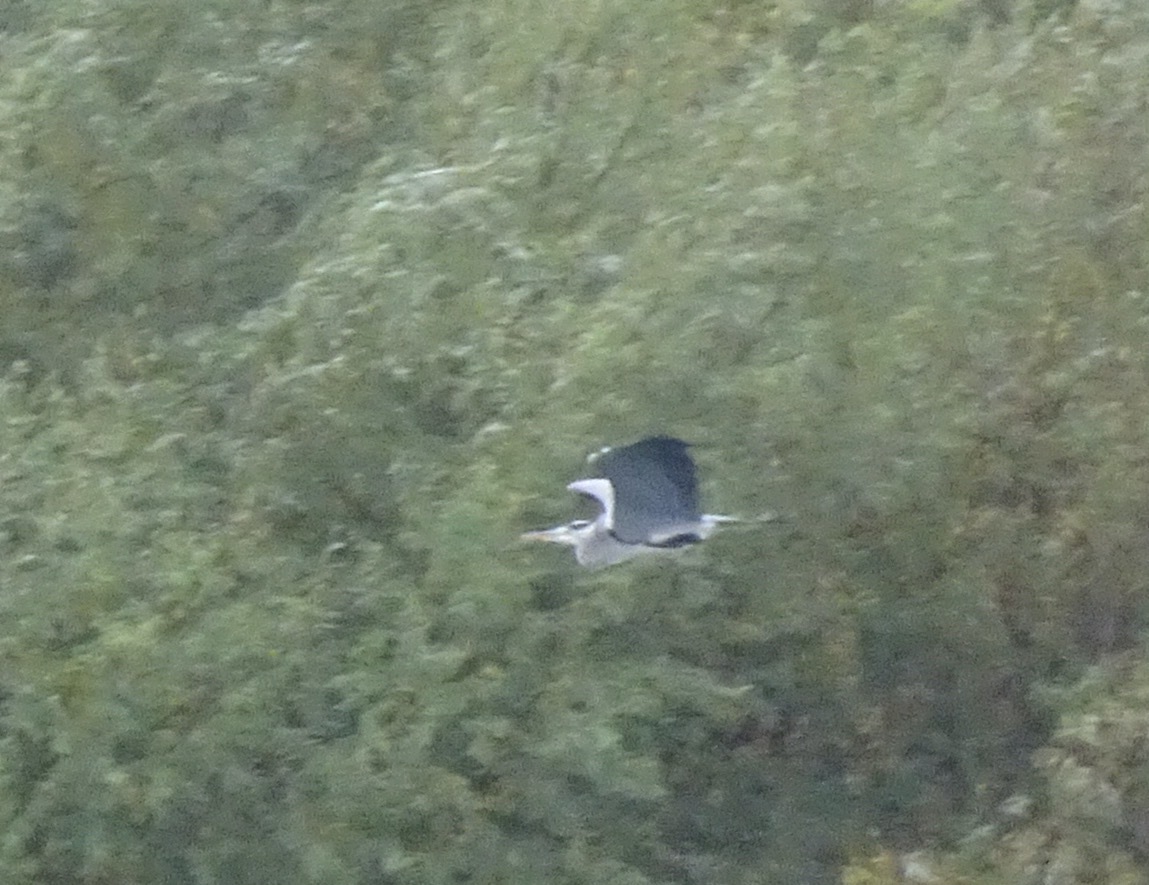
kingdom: Animalia
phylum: Chordata
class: Aves
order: Pelecaniformes
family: Ardeidae
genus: Ardea
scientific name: Ardea cinerea
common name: Grey heron
